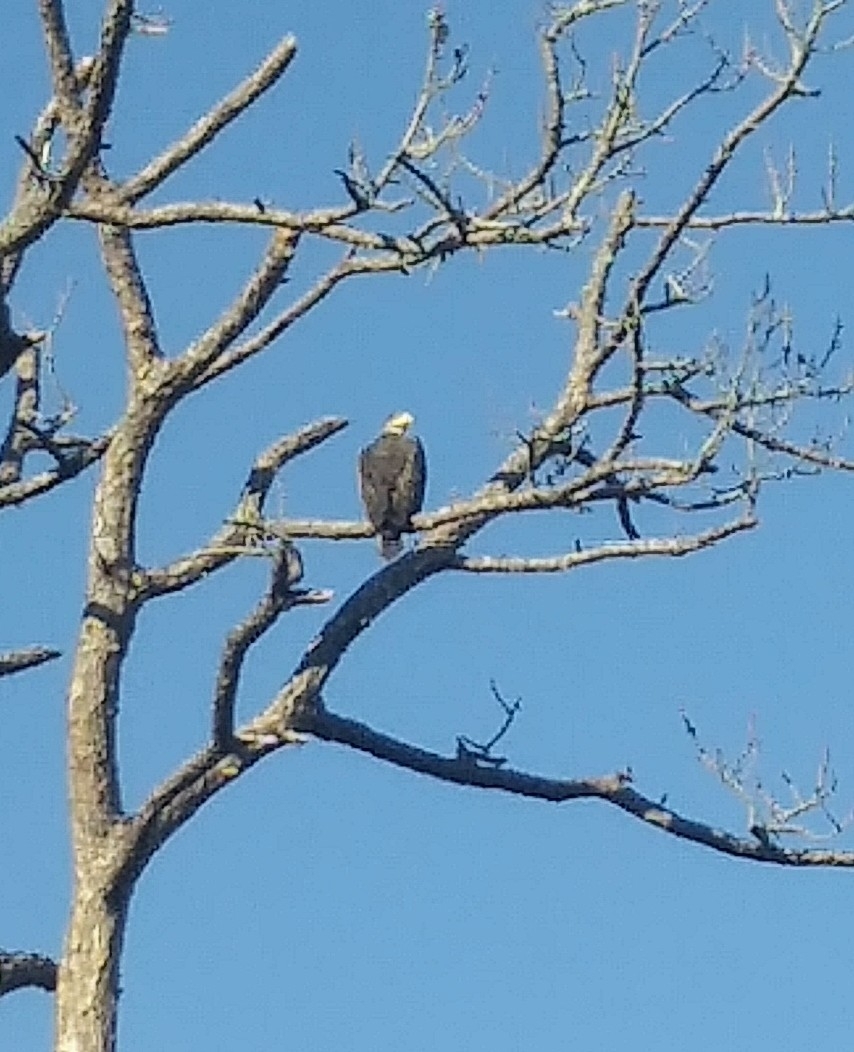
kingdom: Animalia
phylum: Chordata
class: Aves
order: Accipitriformes
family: Accipitridae
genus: Haliaeetus
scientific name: Haliaeetus leucocephalus
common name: Bald eagle
